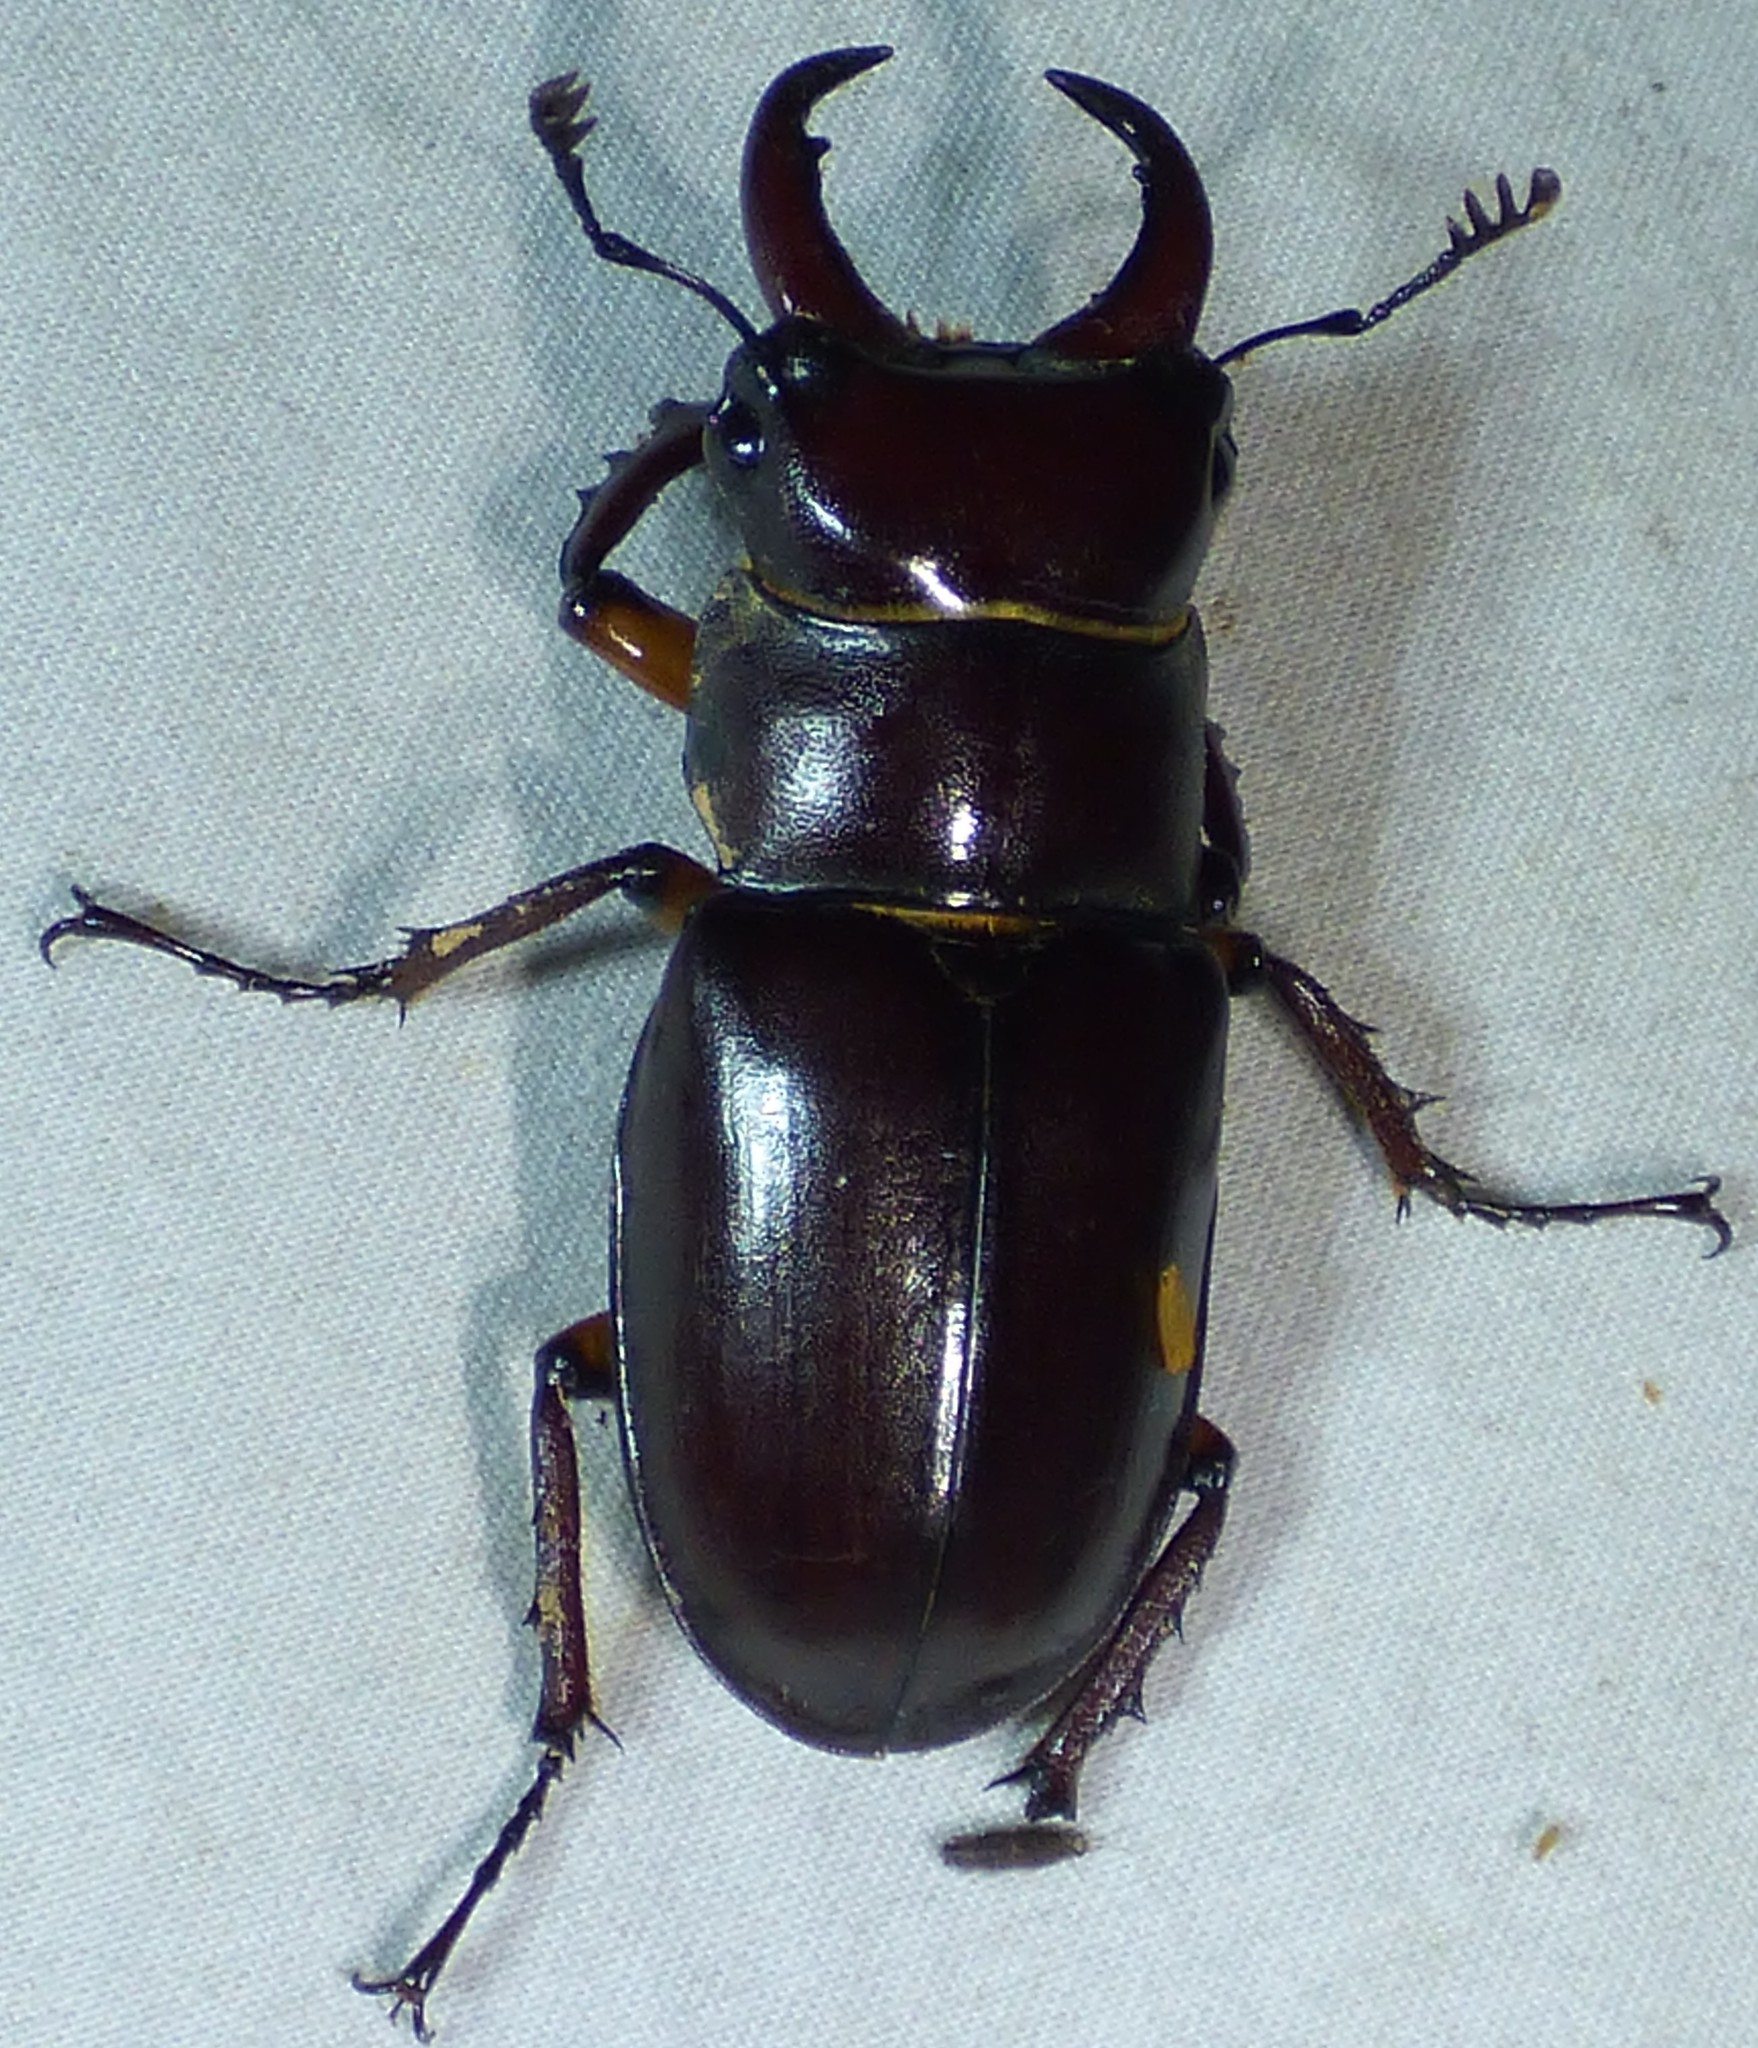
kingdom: Animalia
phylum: Arthropoda
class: Insecta
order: Coleoptera
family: Lucanidae
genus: Lucanus
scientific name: Lucanus capreolus
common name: Stag beetle
